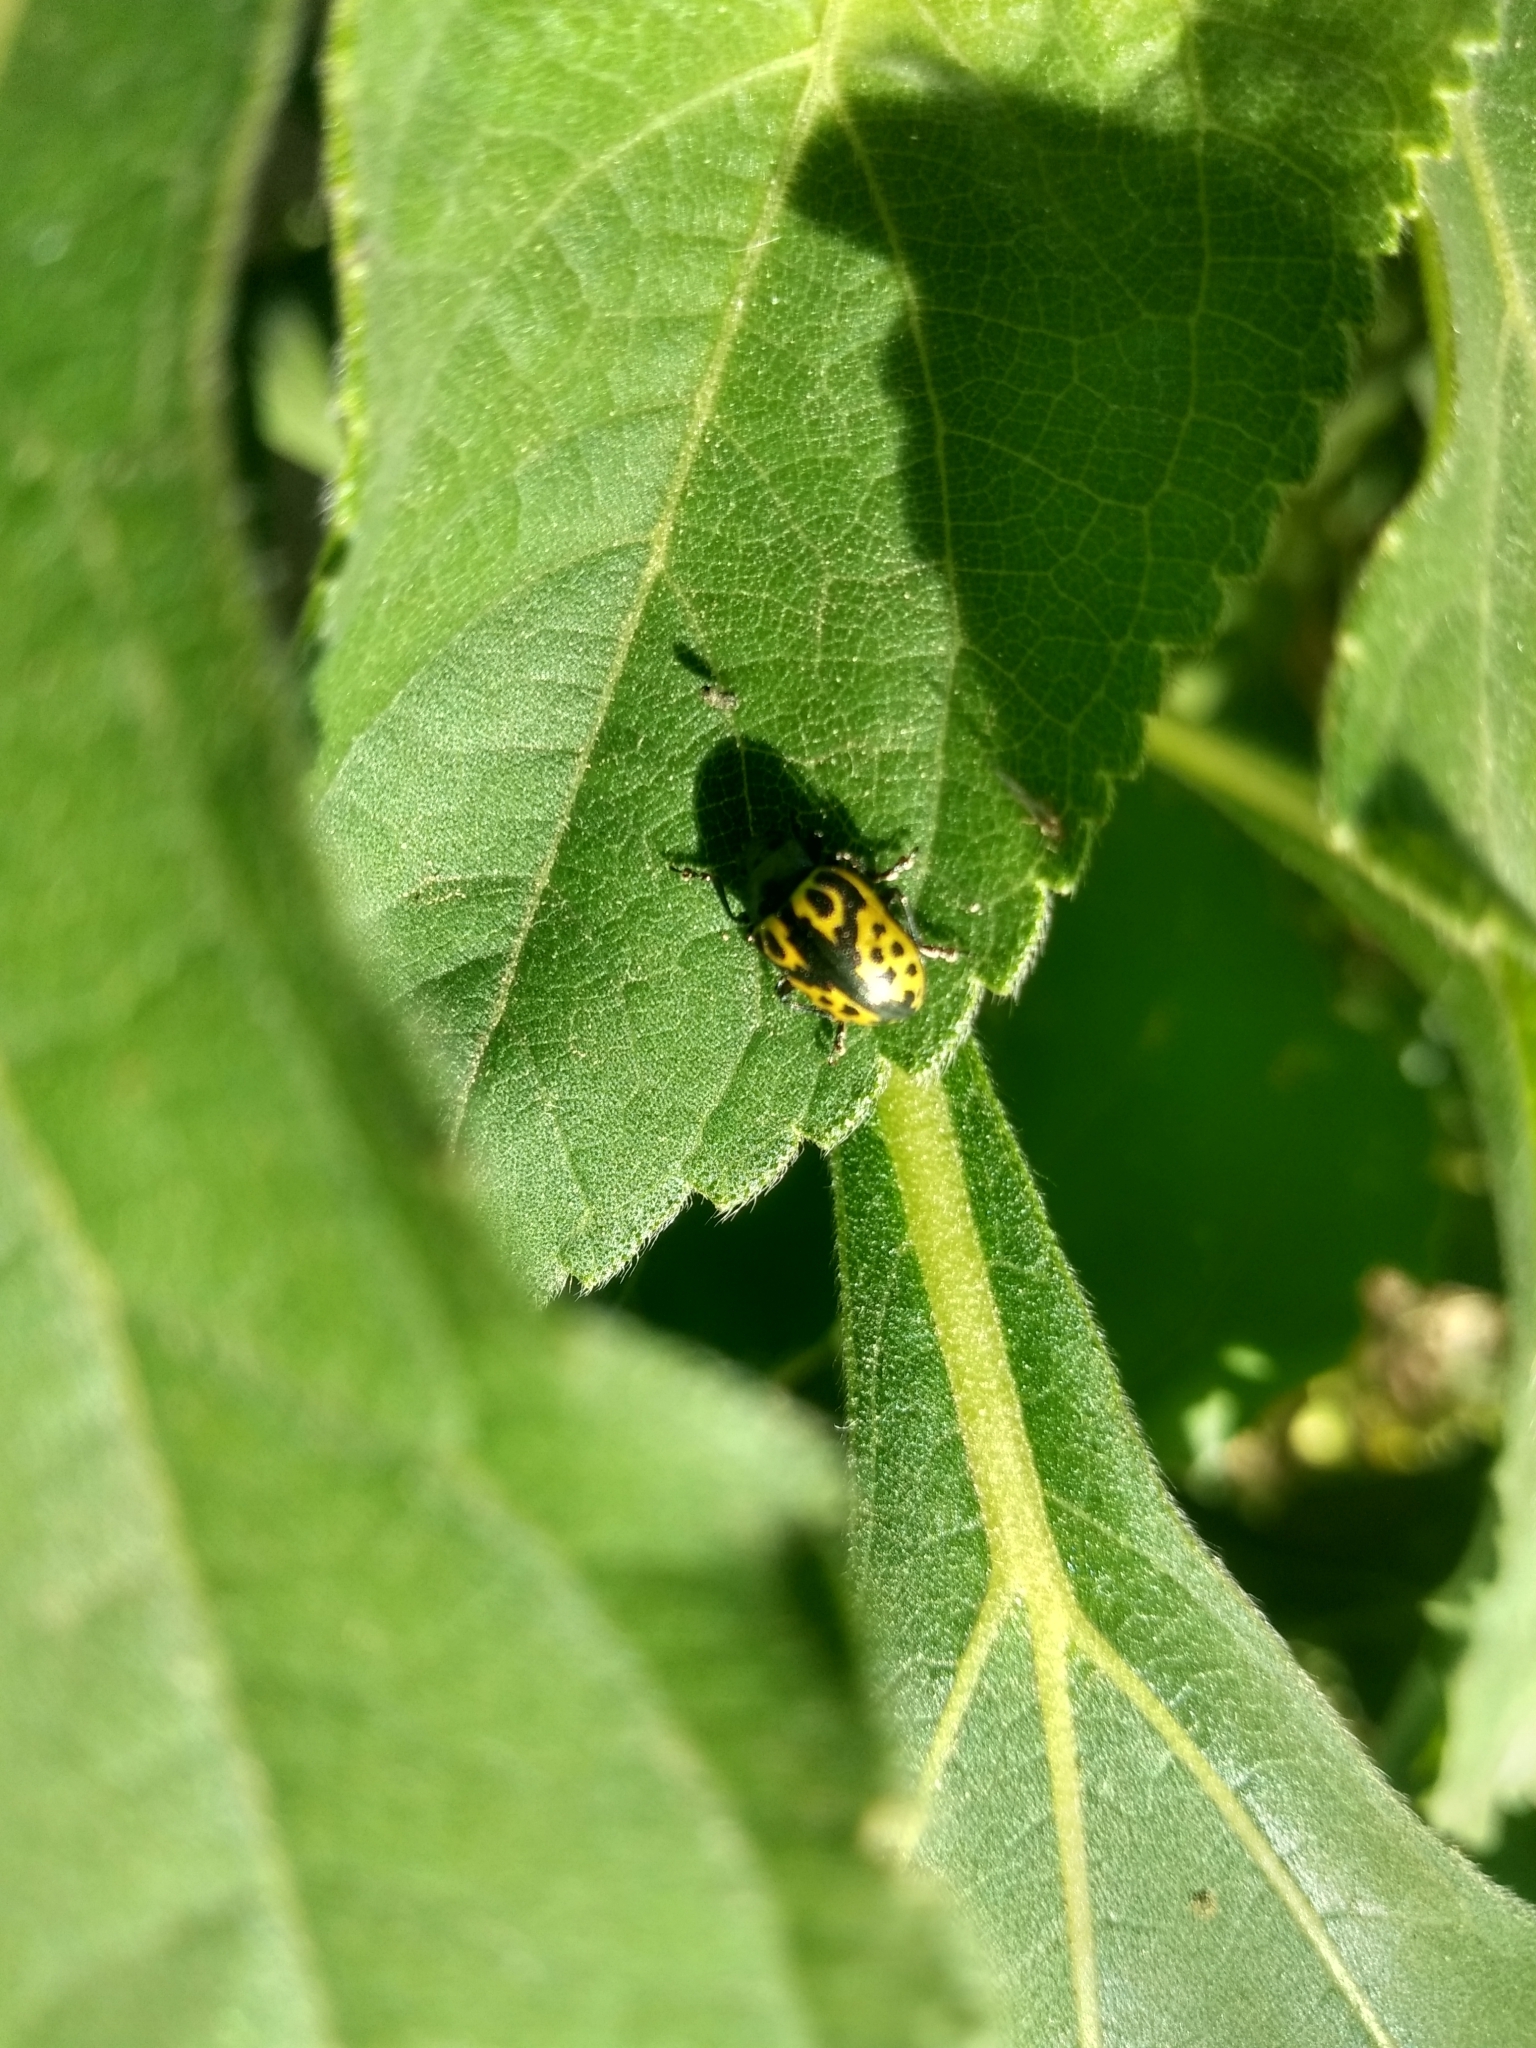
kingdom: Animalia
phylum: Arthropoda
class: Insecta
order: Coleoptera
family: Chrysomelidae
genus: Calligrapha
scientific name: Calligrapha
